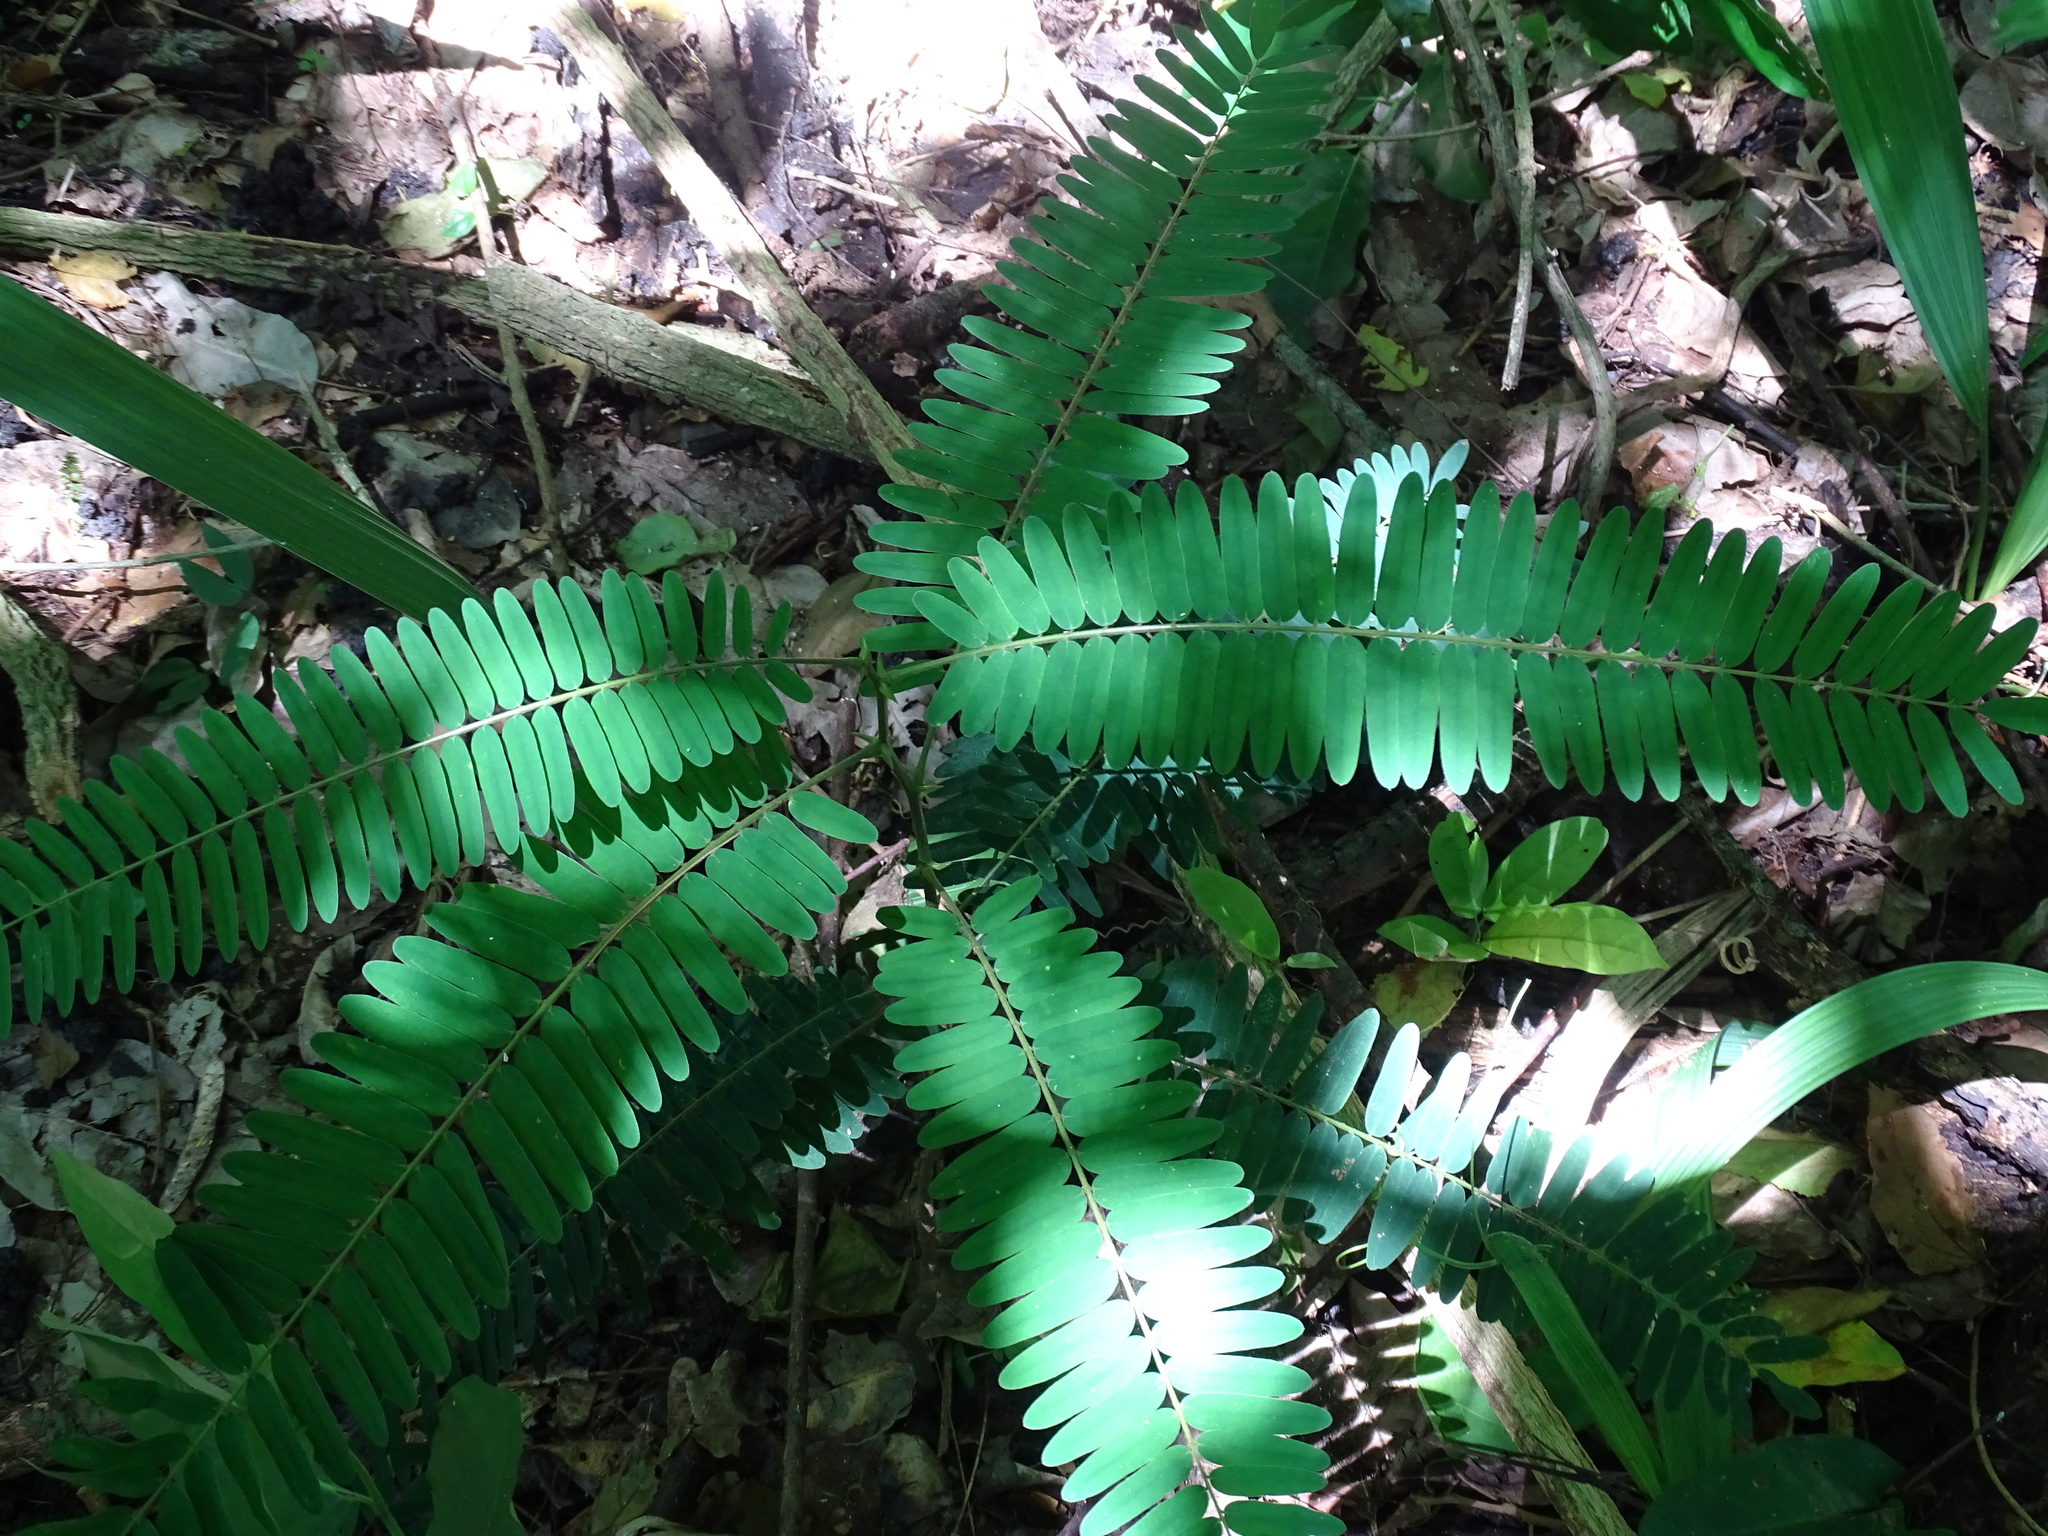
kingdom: Plantae
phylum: Tracheophyta
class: Magnoliopsida
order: Fabales
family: Fabaceae
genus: Machaerium
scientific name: Machaerium isadelphum
